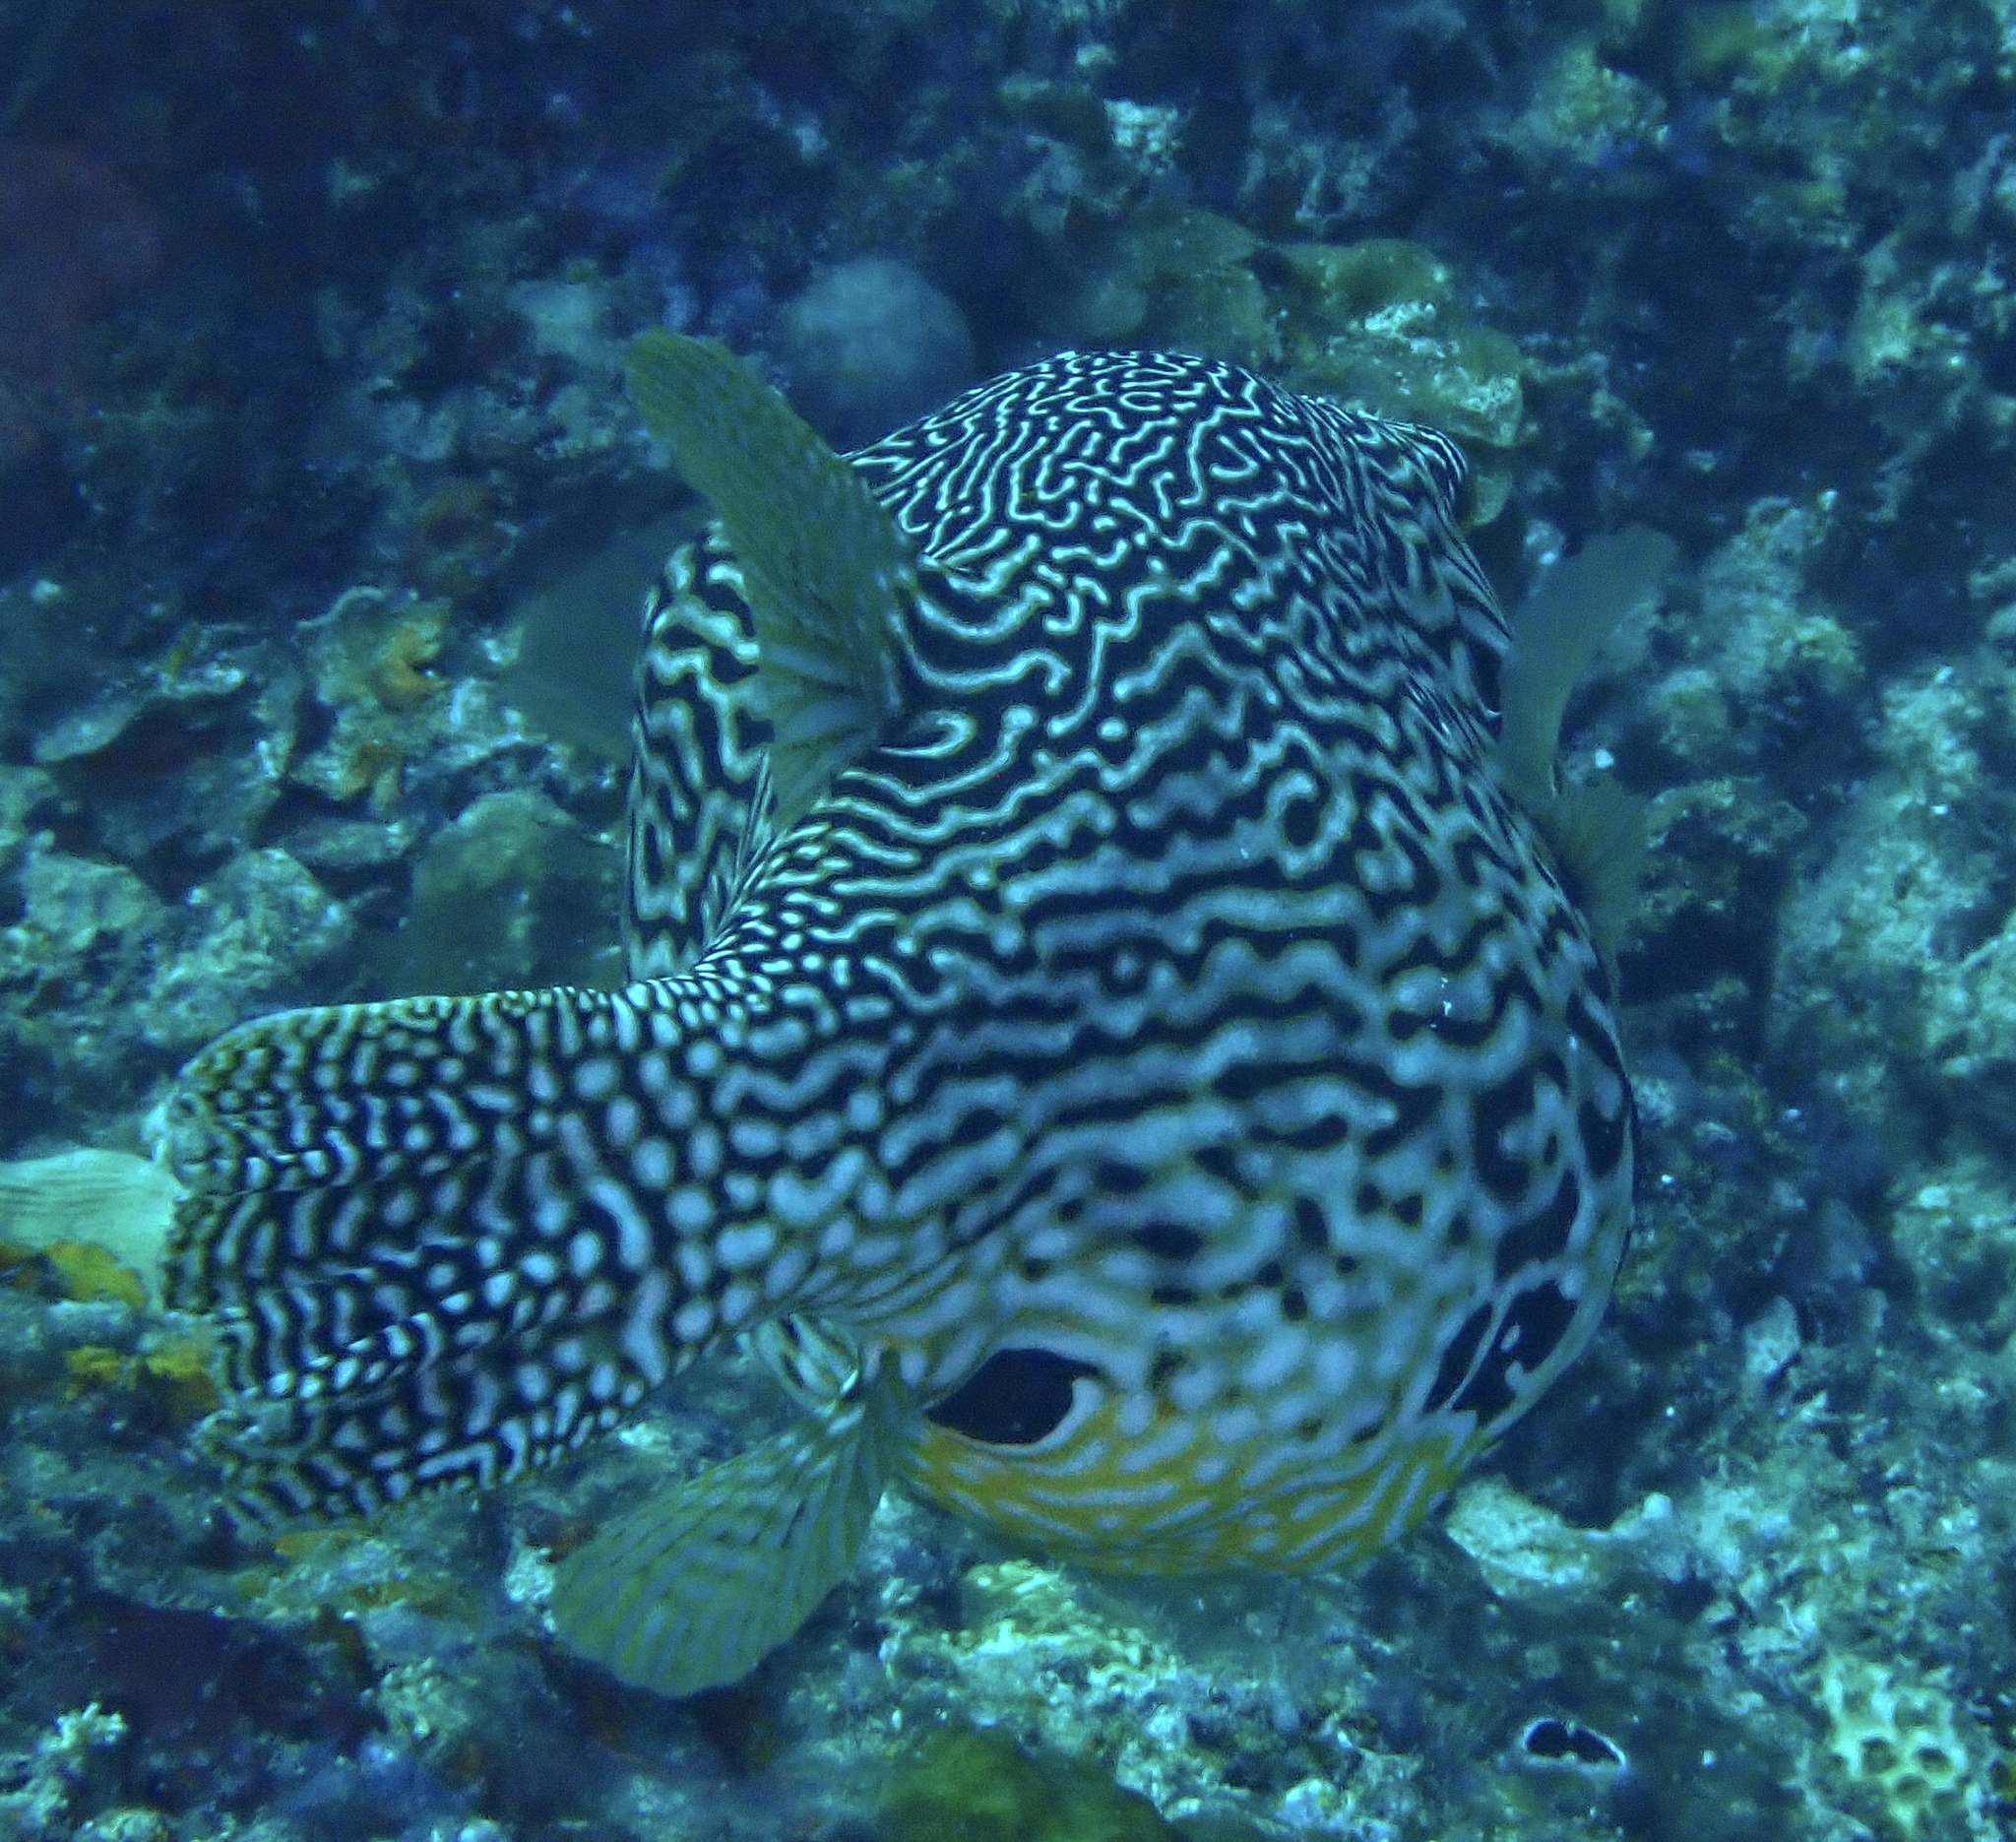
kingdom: Animalia
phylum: Chordata
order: Tetraodontiformes
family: Tetraodontidae
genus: Arothron
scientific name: Arothron mappa
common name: Map blaasop
